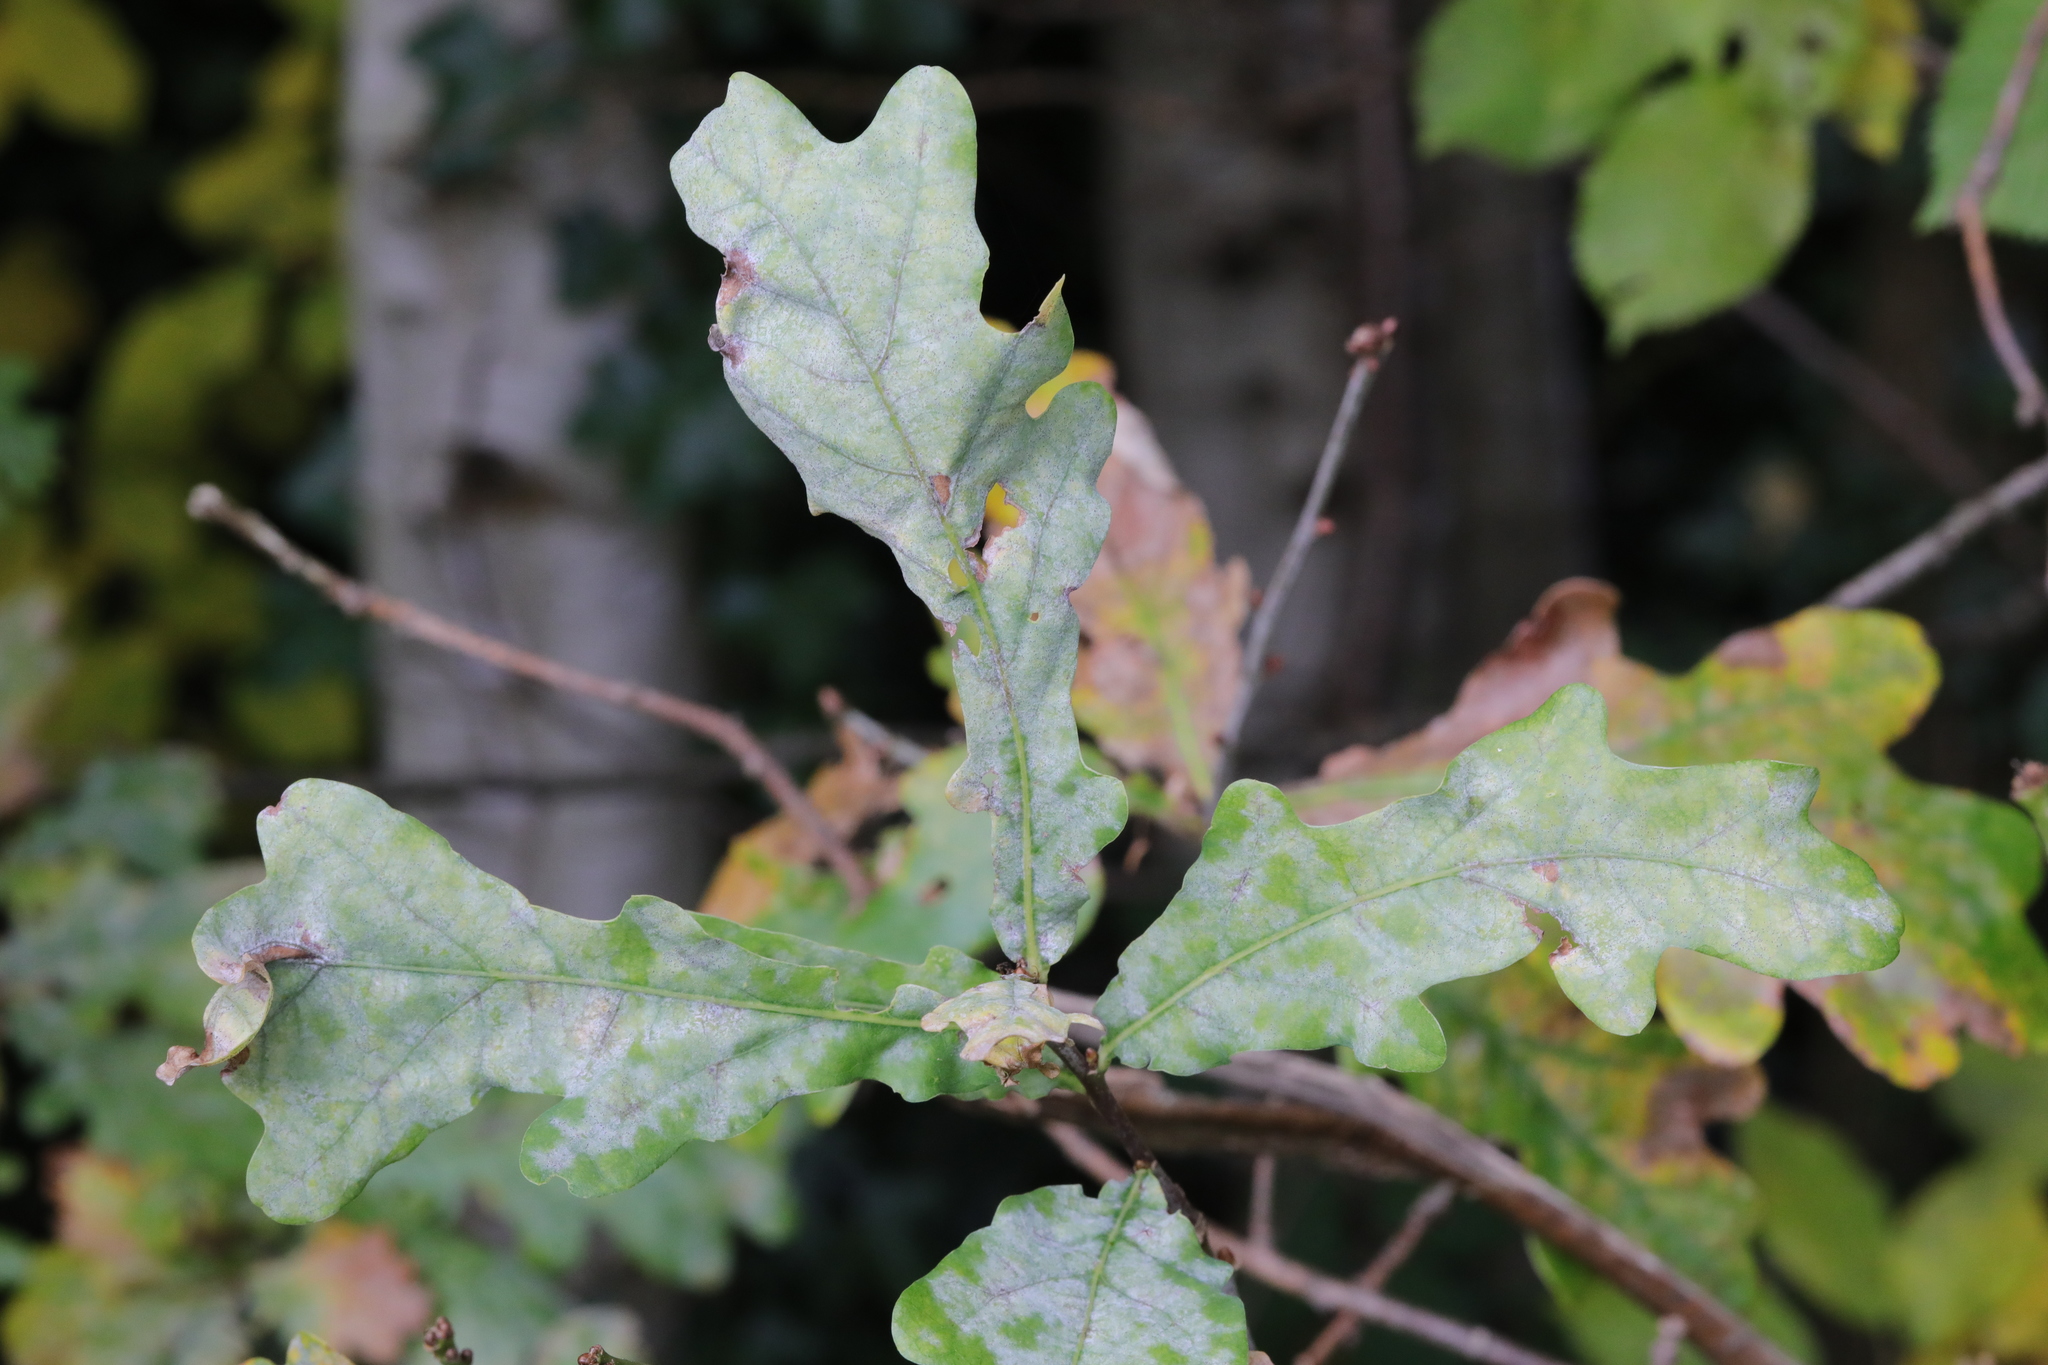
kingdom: Fungi
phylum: Ascomycota
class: Leotiomycetes
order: Helotiales
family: Erysiphaceae
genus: Erysiphe
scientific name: Erysiphe alphitoides
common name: Oak mildew
